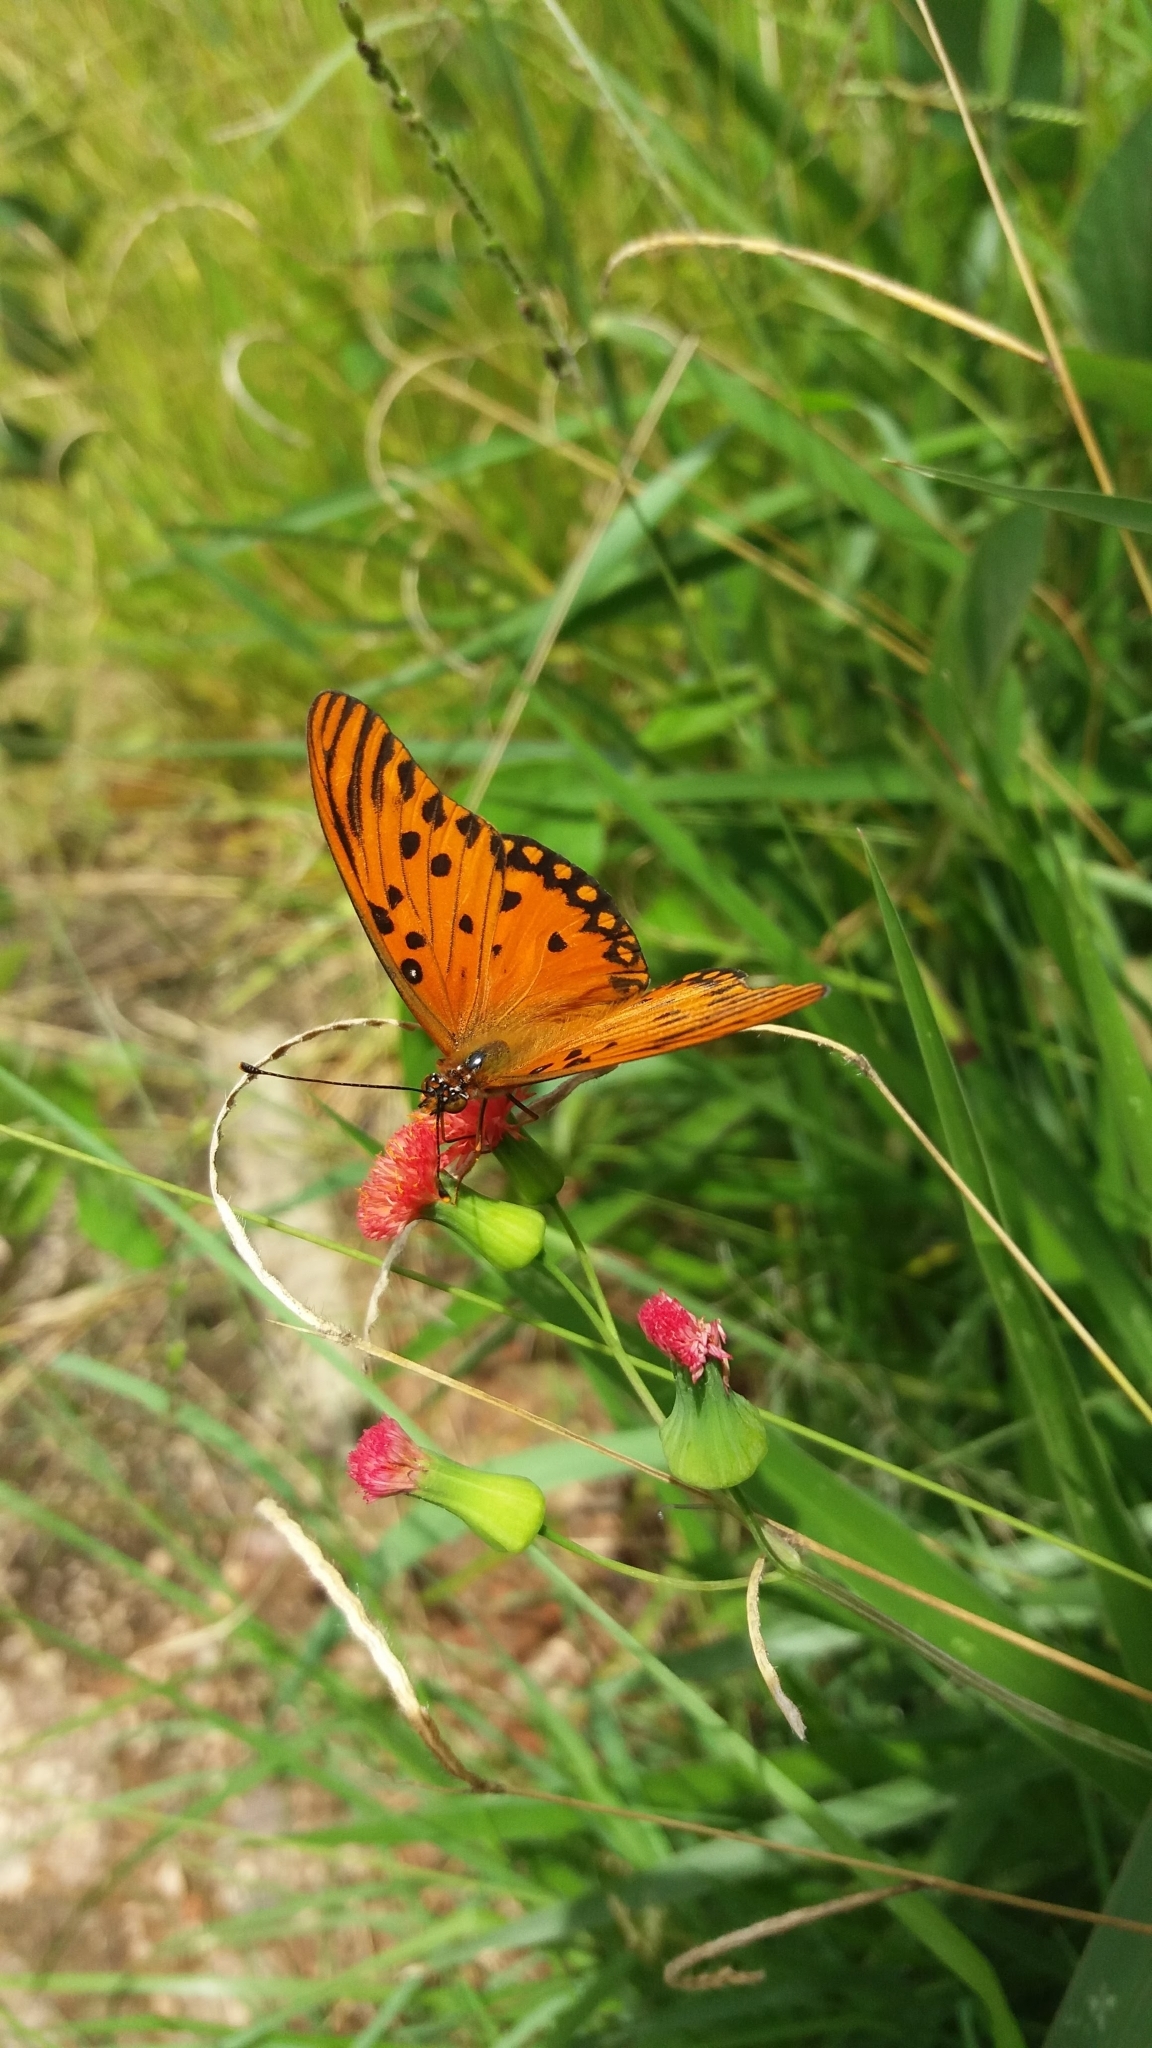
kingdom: Animalia
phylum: Arthropoda
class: Insecta
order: Lepidoptera
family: Nymphalidae
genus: Dione
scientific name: Dione vanillae
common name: Gulf fritillary
